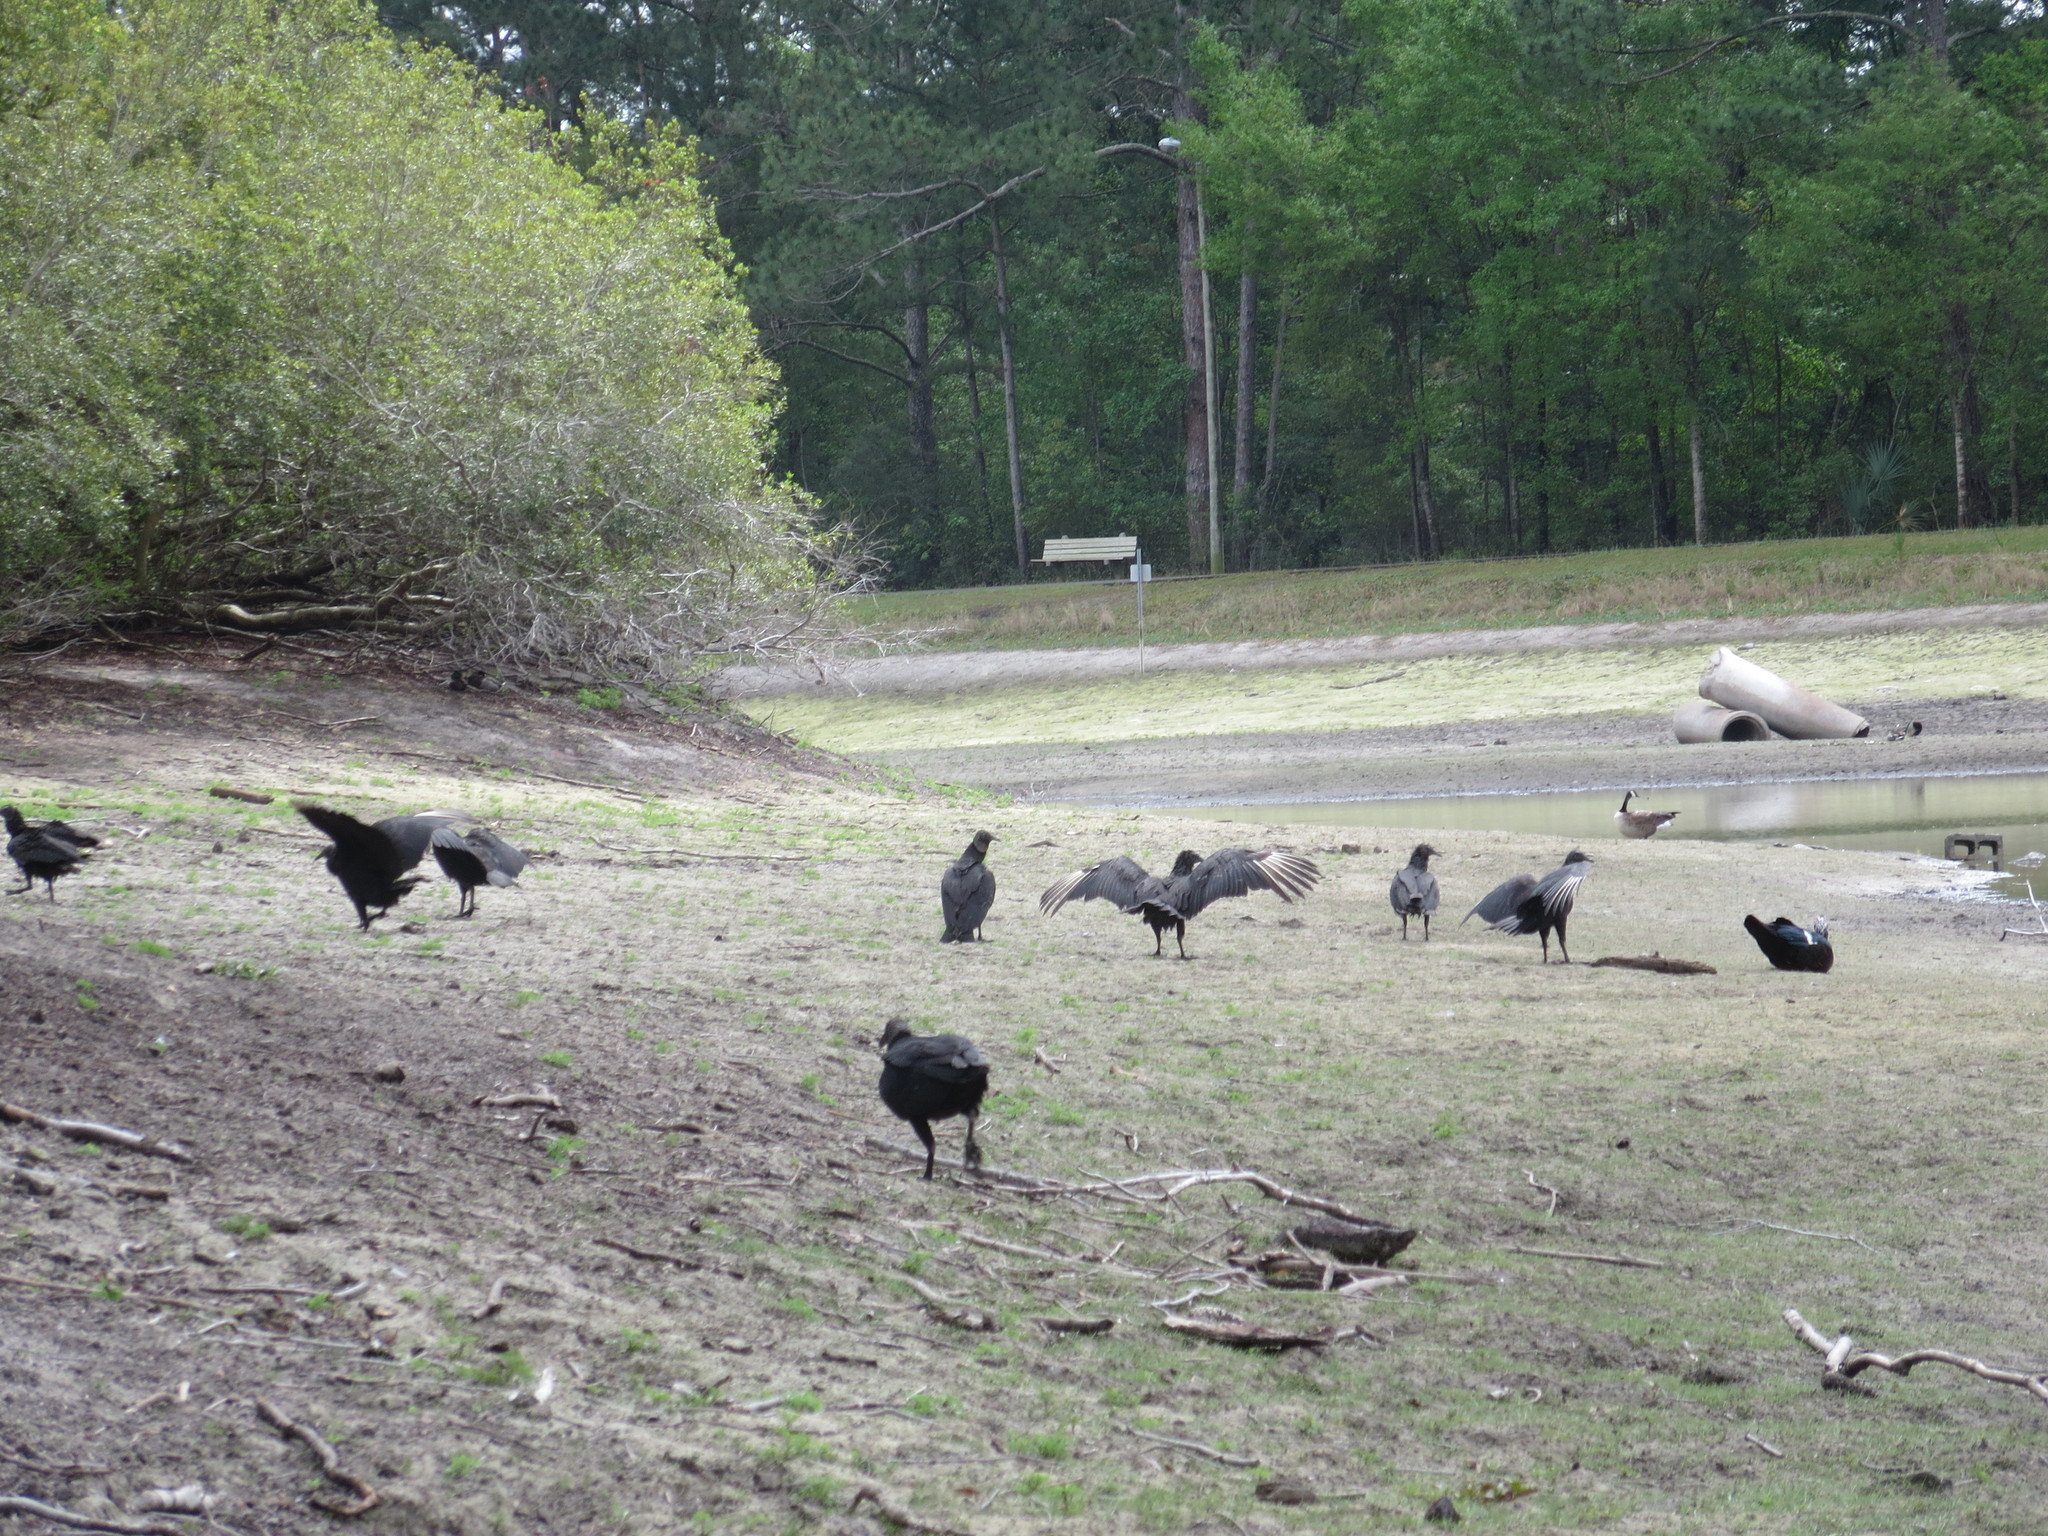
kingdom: Animalia
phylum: Chordata
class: Aves
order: Accipitriformes
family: Cathartidae
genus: Coragyps
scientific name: Coragyps atratus
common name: Black vulture
